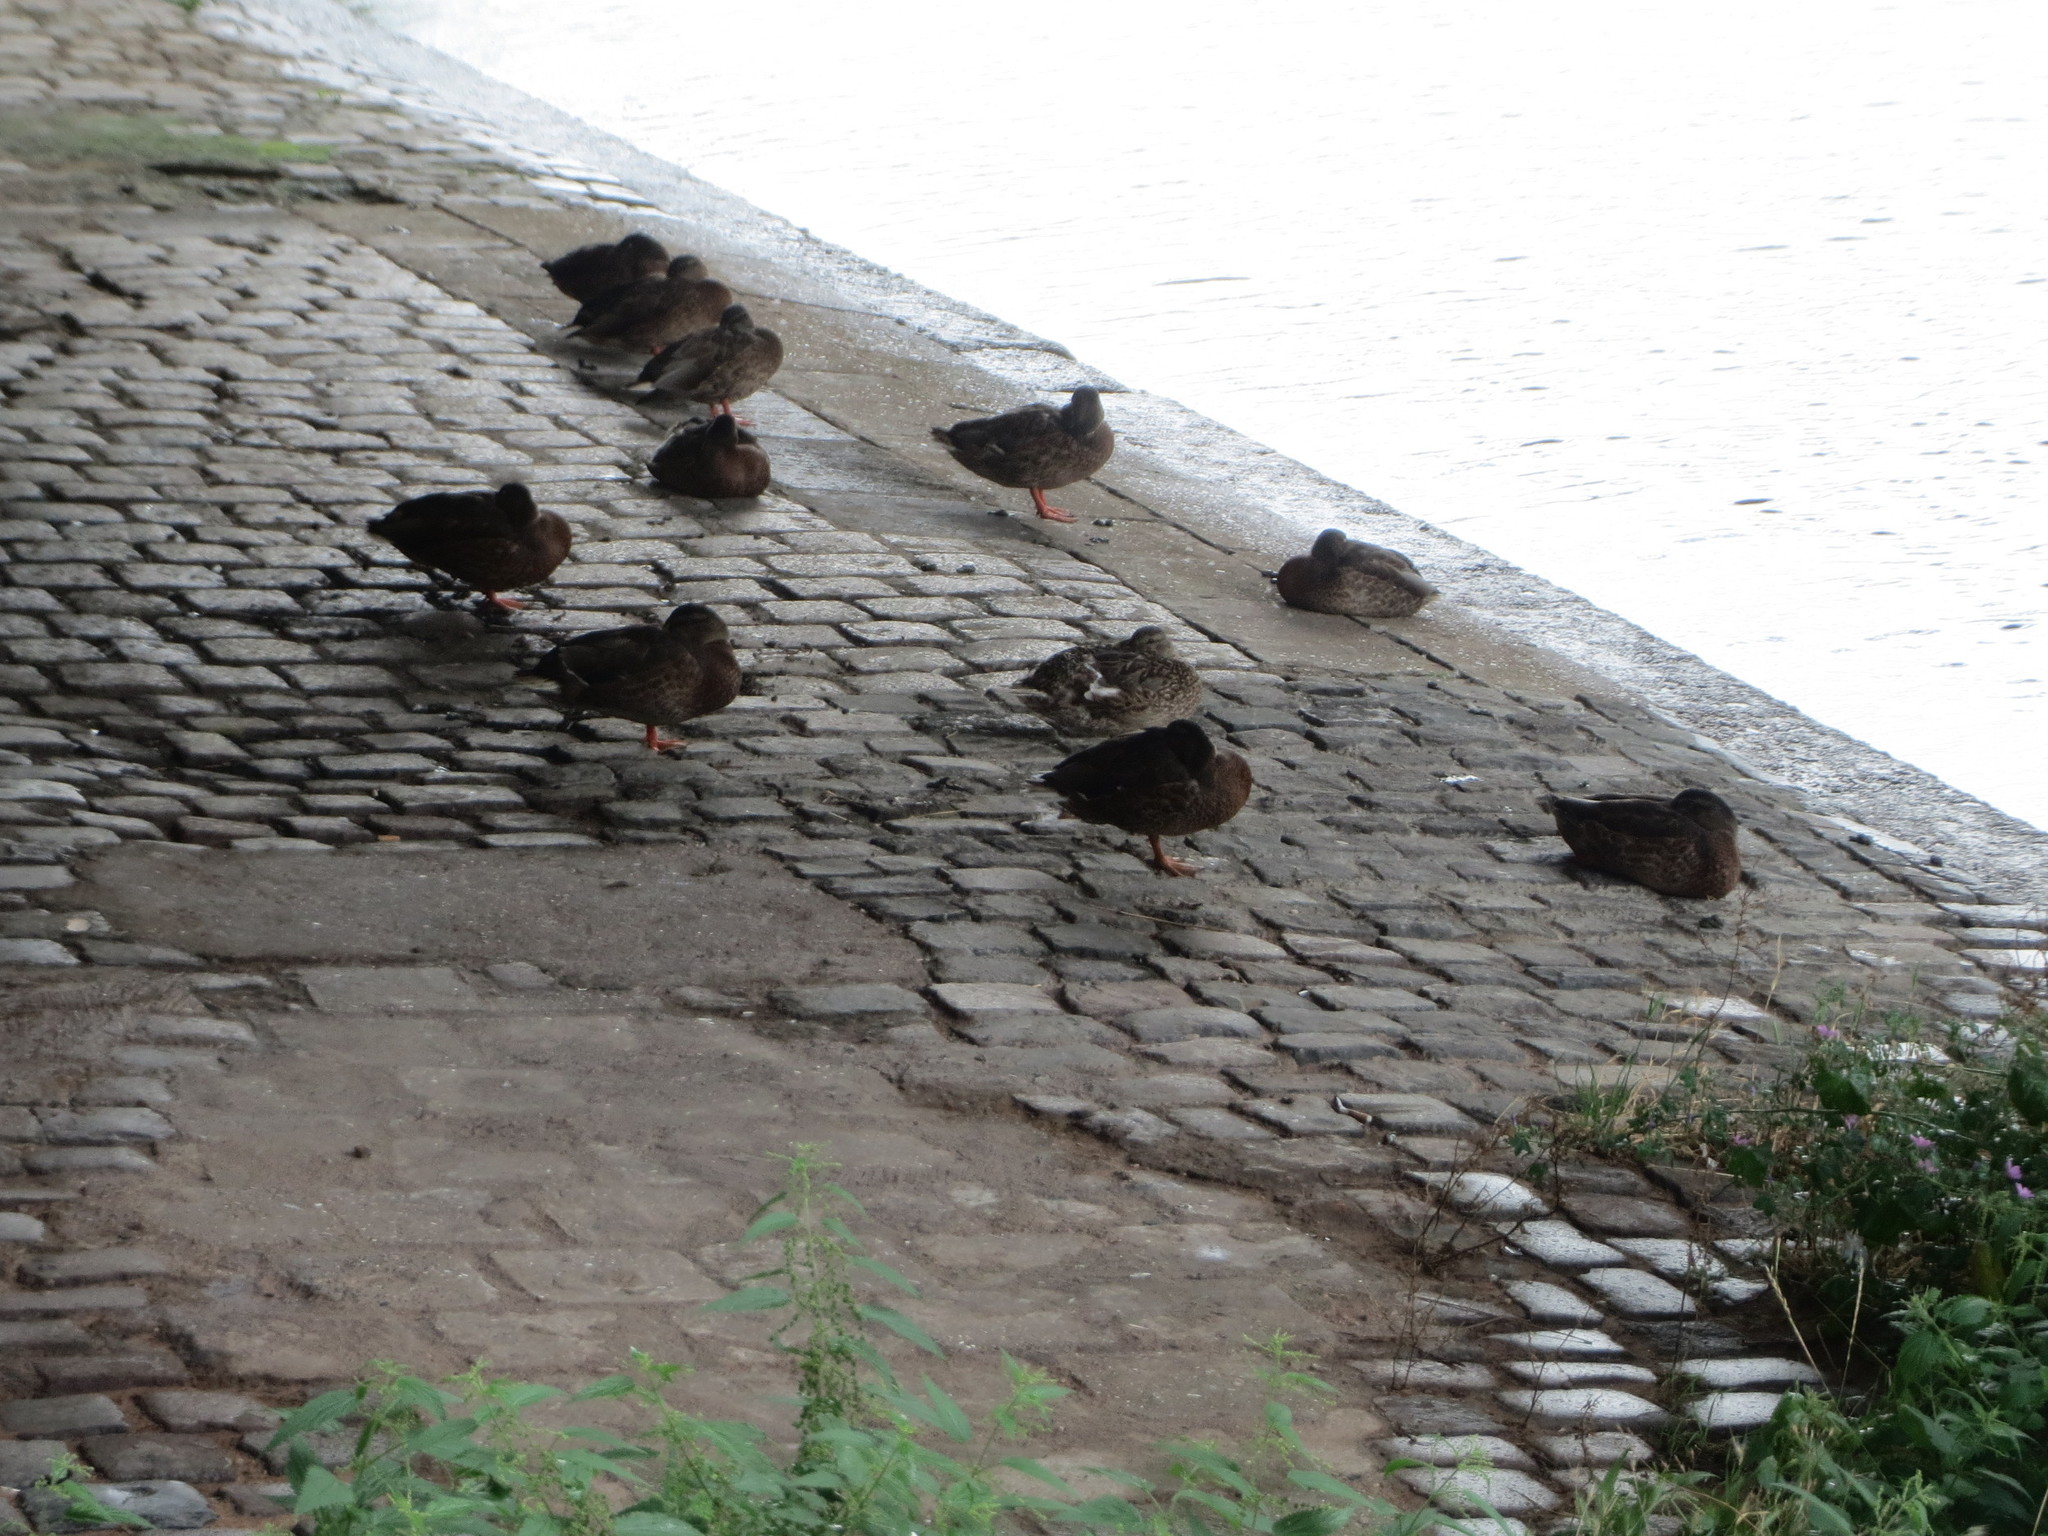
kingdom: Animalia
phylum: Chordata
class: Aves
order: Anseriformes
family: Anatidae
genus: Anas
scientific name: Anas platyrhynchos
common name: Mallard
